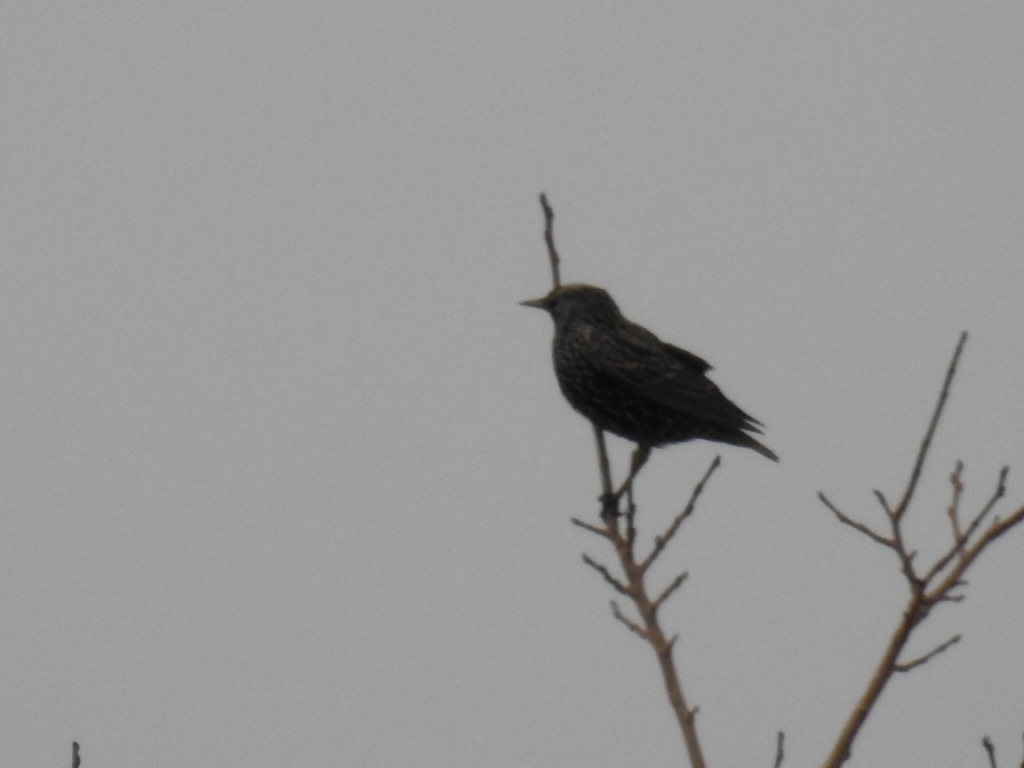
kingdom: Animalia
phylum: Chordata
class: Aves
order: Passeriformes
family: Sturnidae
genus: Sturnus
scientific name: Sturnus vulgaris
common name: Common starling
